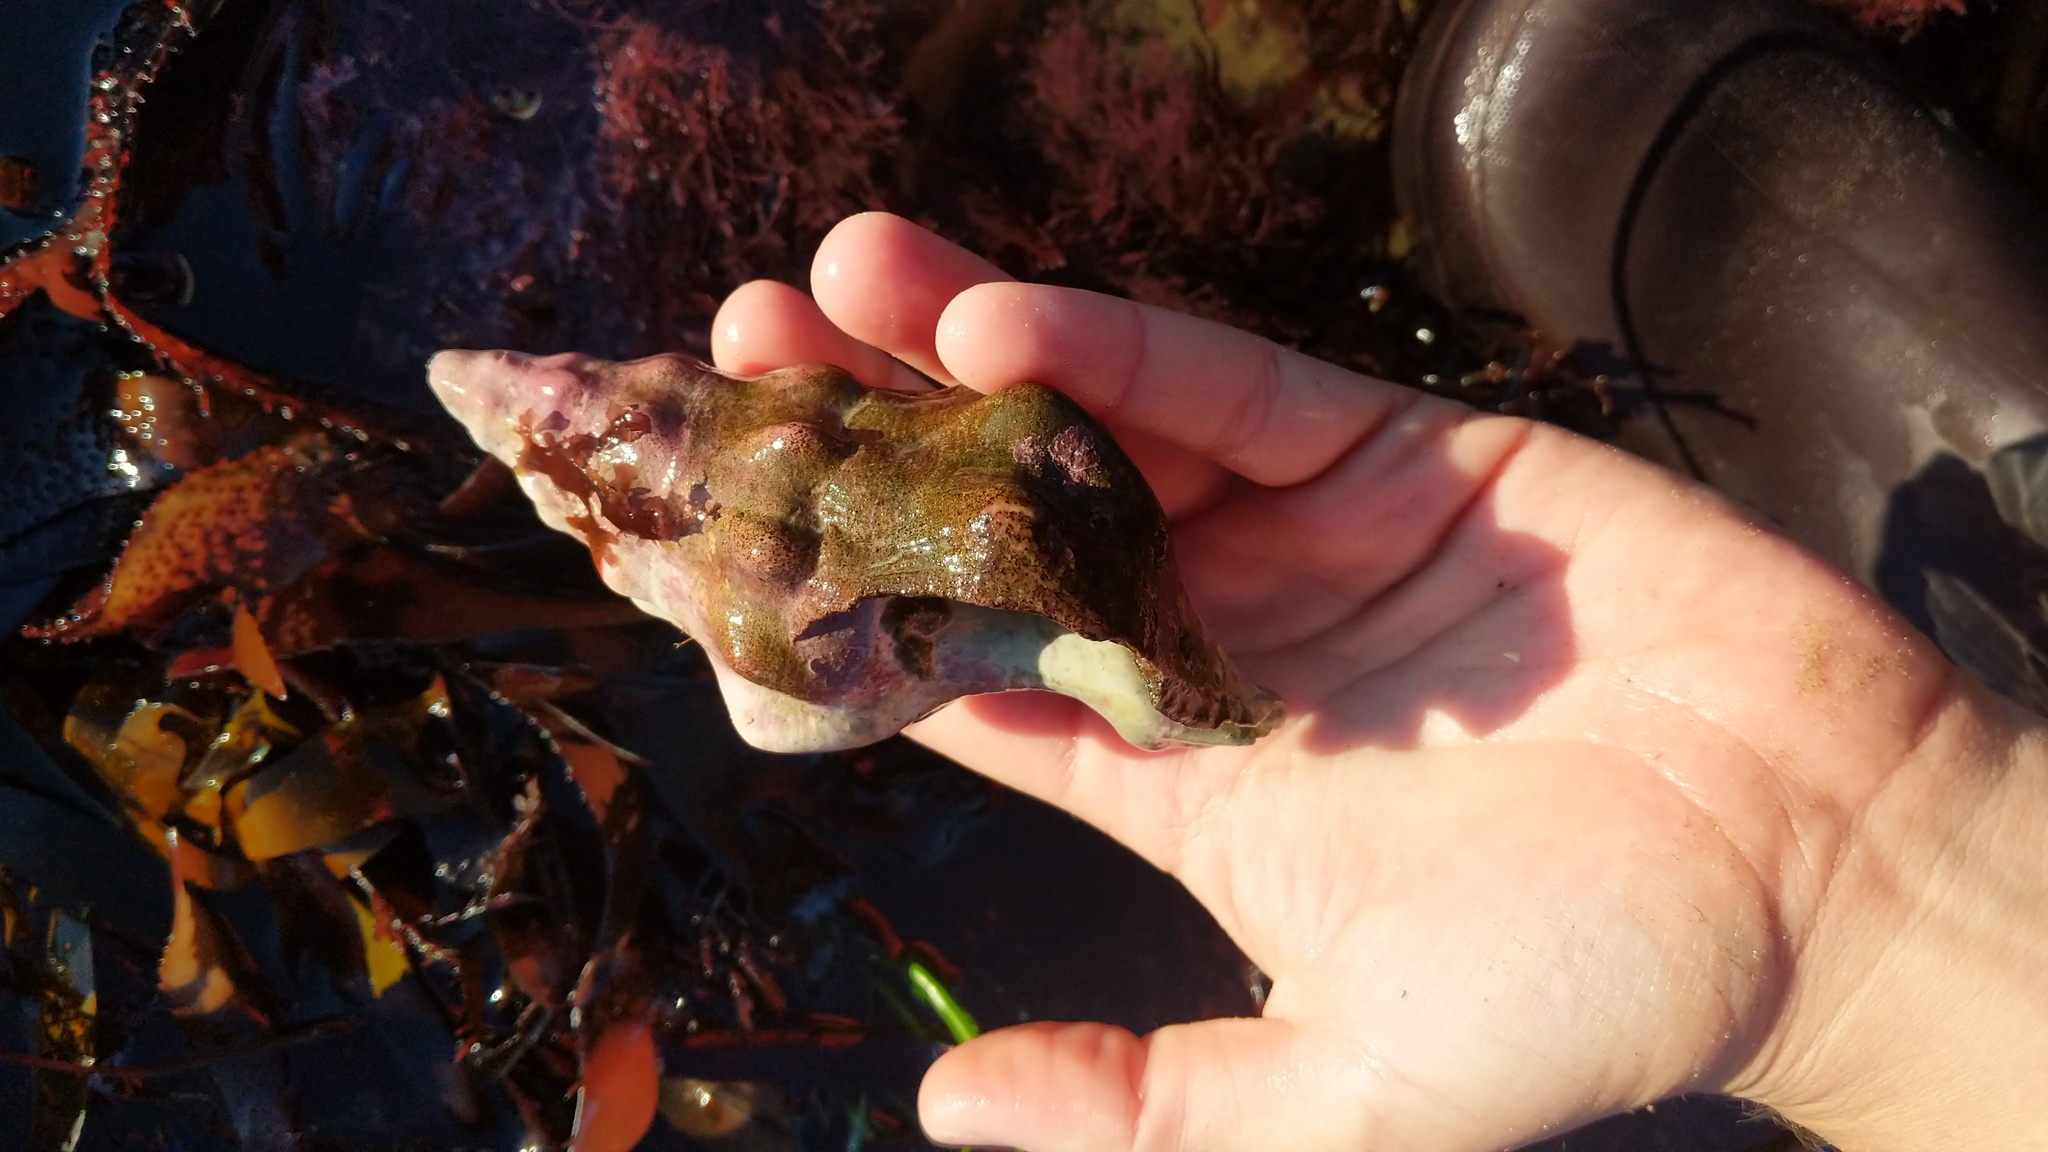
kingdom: Animalia
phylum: Mollusca
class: Gastropoda
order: Neogastropoda
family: Austrosiphonidae
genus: Kelletia
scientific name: Kelletia kelletii
